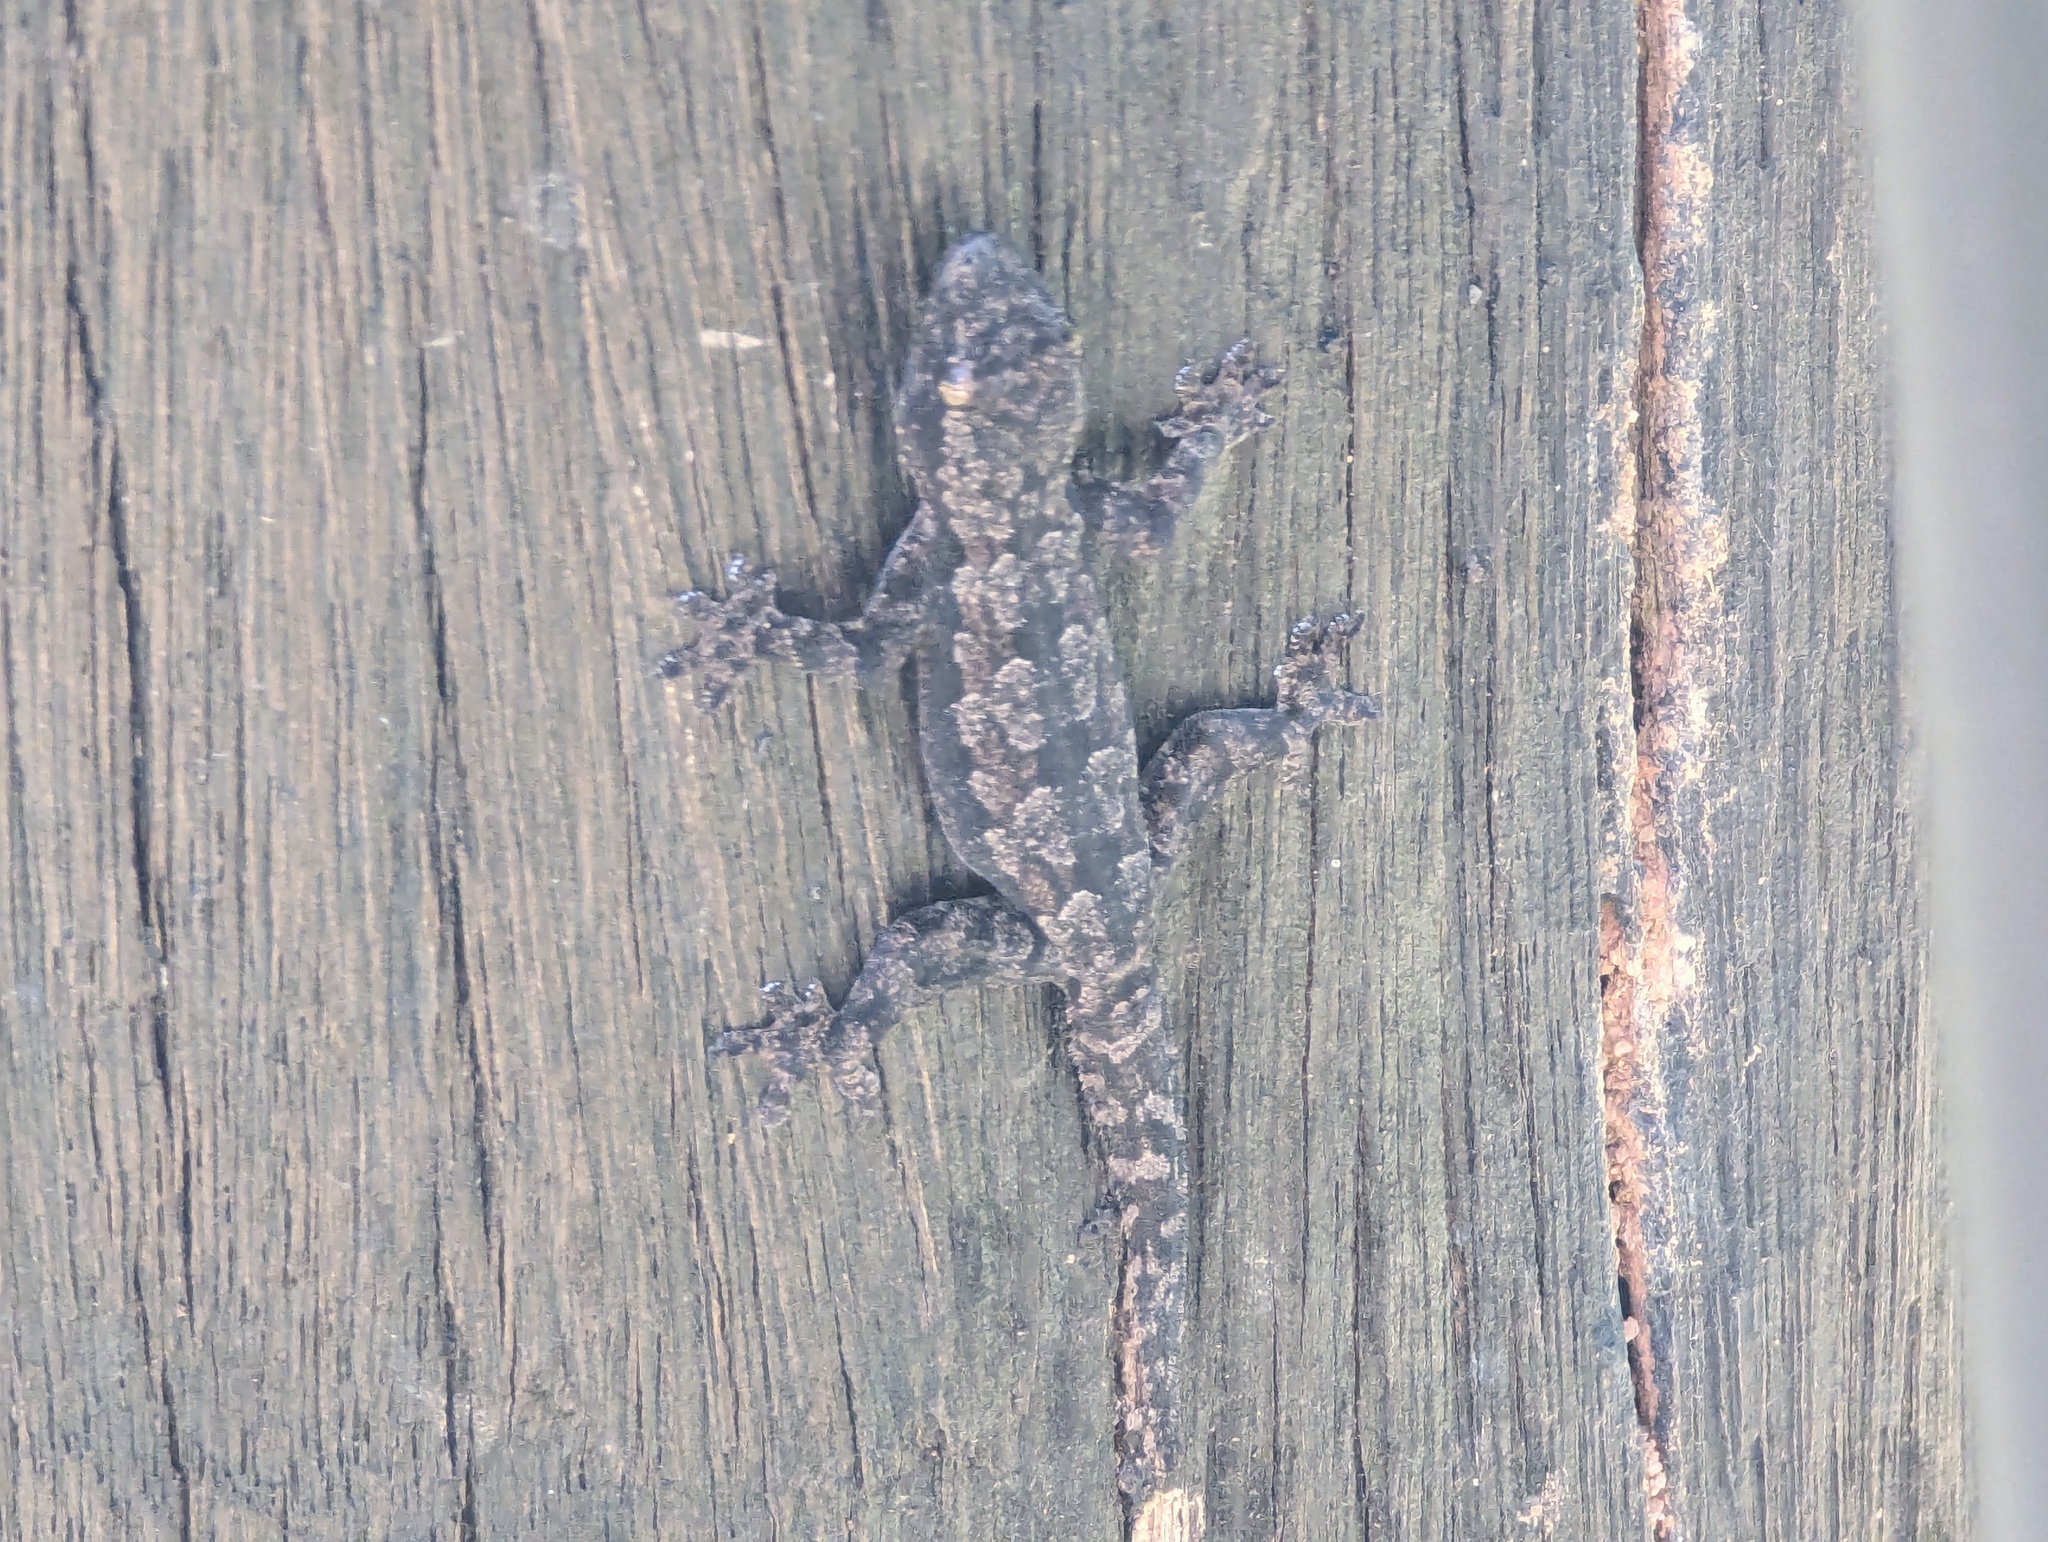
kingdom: Animalia
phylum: Chordata
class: Squamata
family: Gekkonidae
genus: Hemidactylus
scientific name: Hemidactylus platyurus
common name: Flat-tailed house gecko
